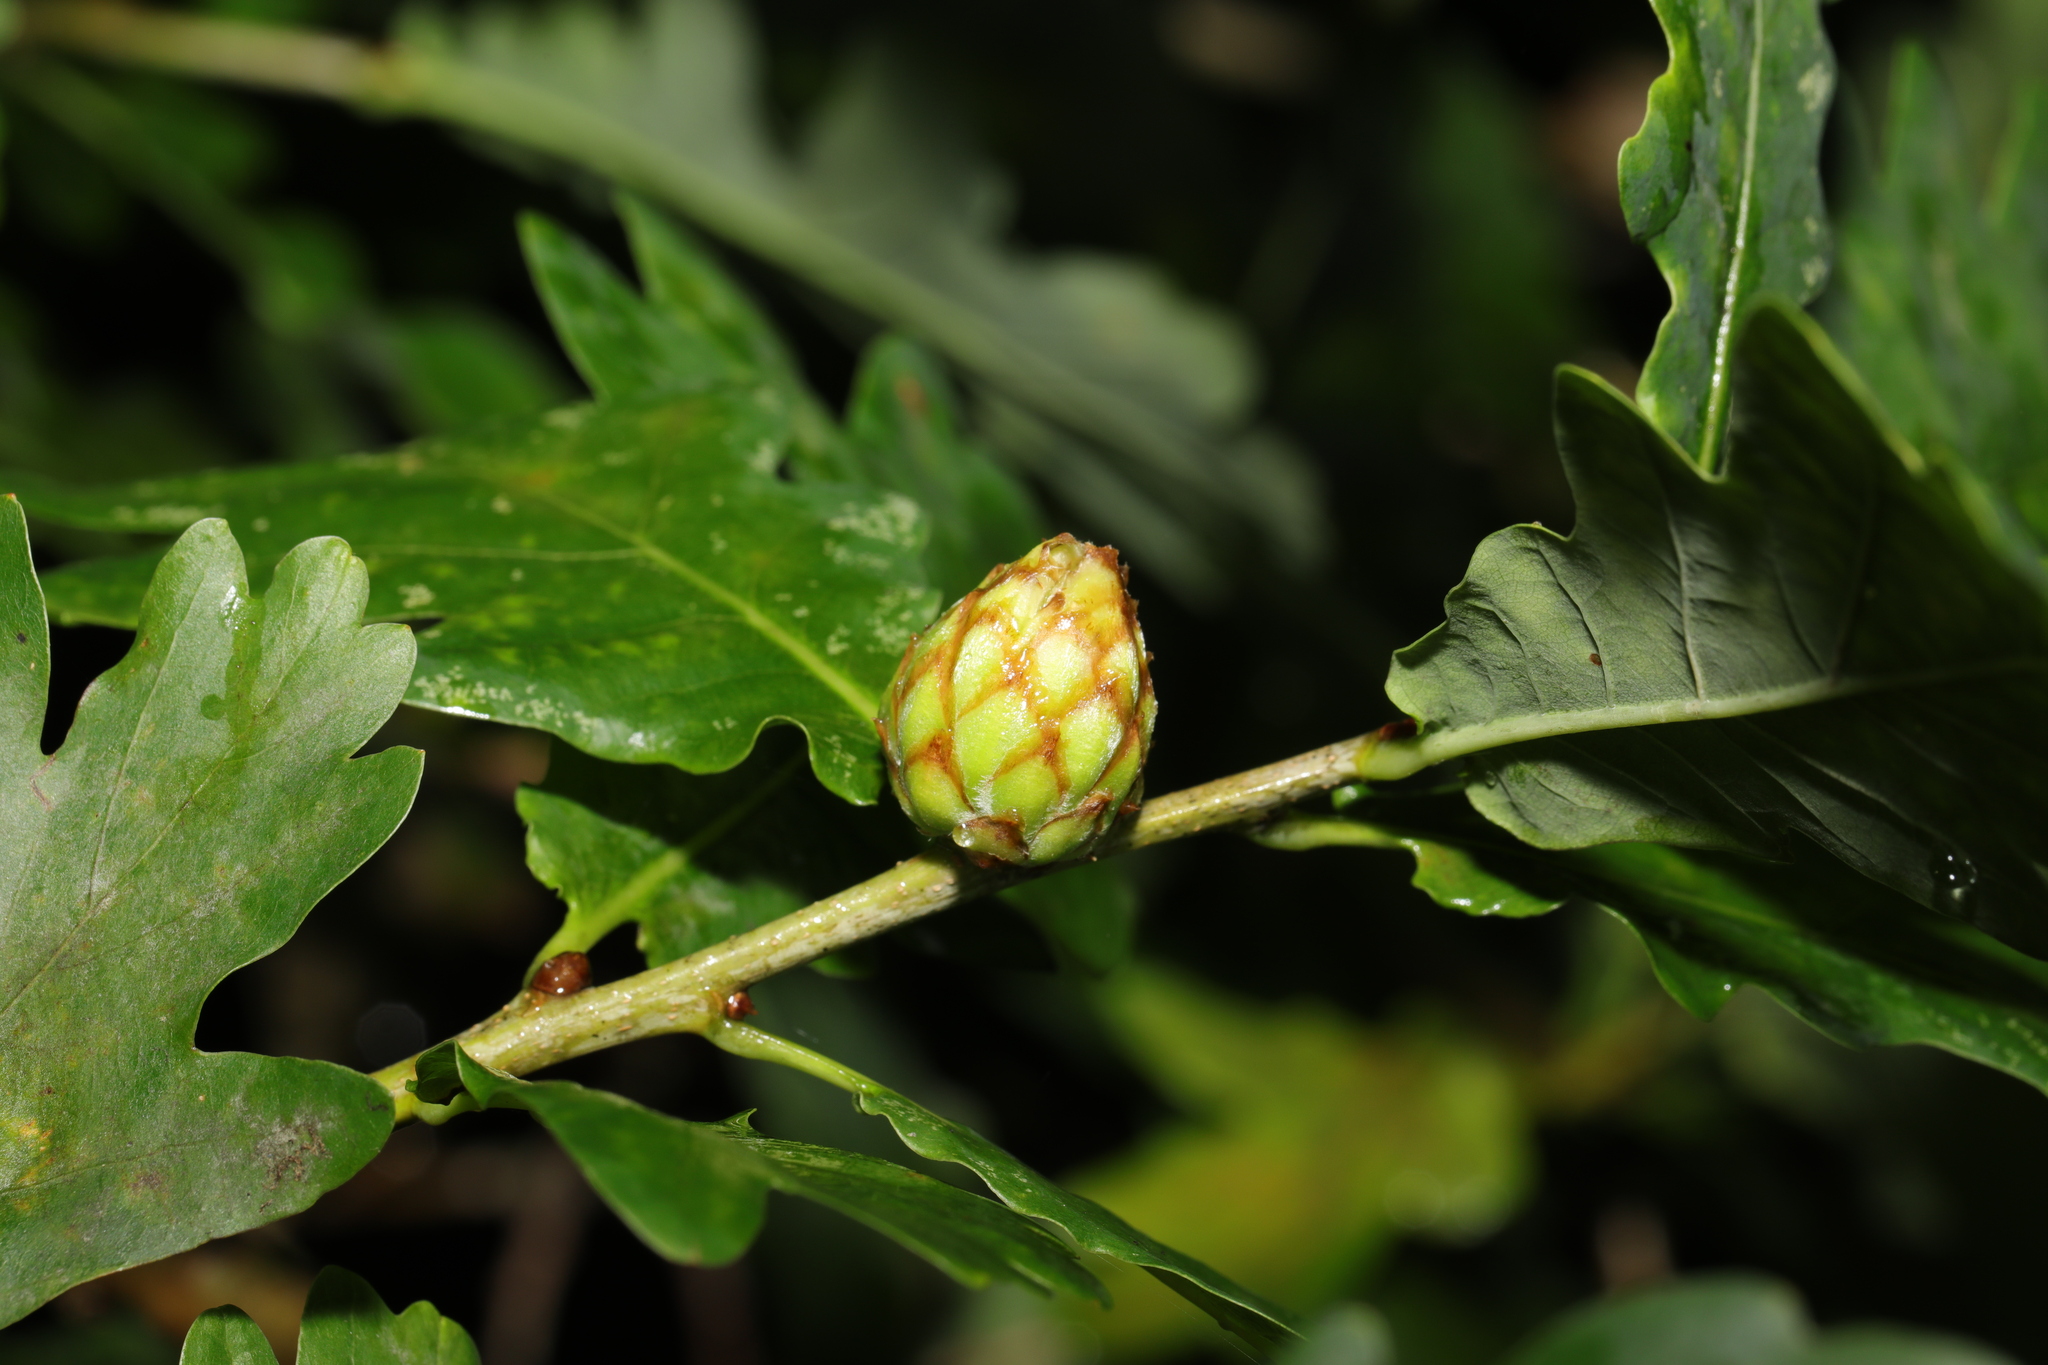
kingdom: Animalia
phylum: Arthropoda
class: Insecta
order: Hymenoptera
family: Cynipidae
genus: Andricus
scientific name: Andricus foecundatrix
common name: Artichoke gall
